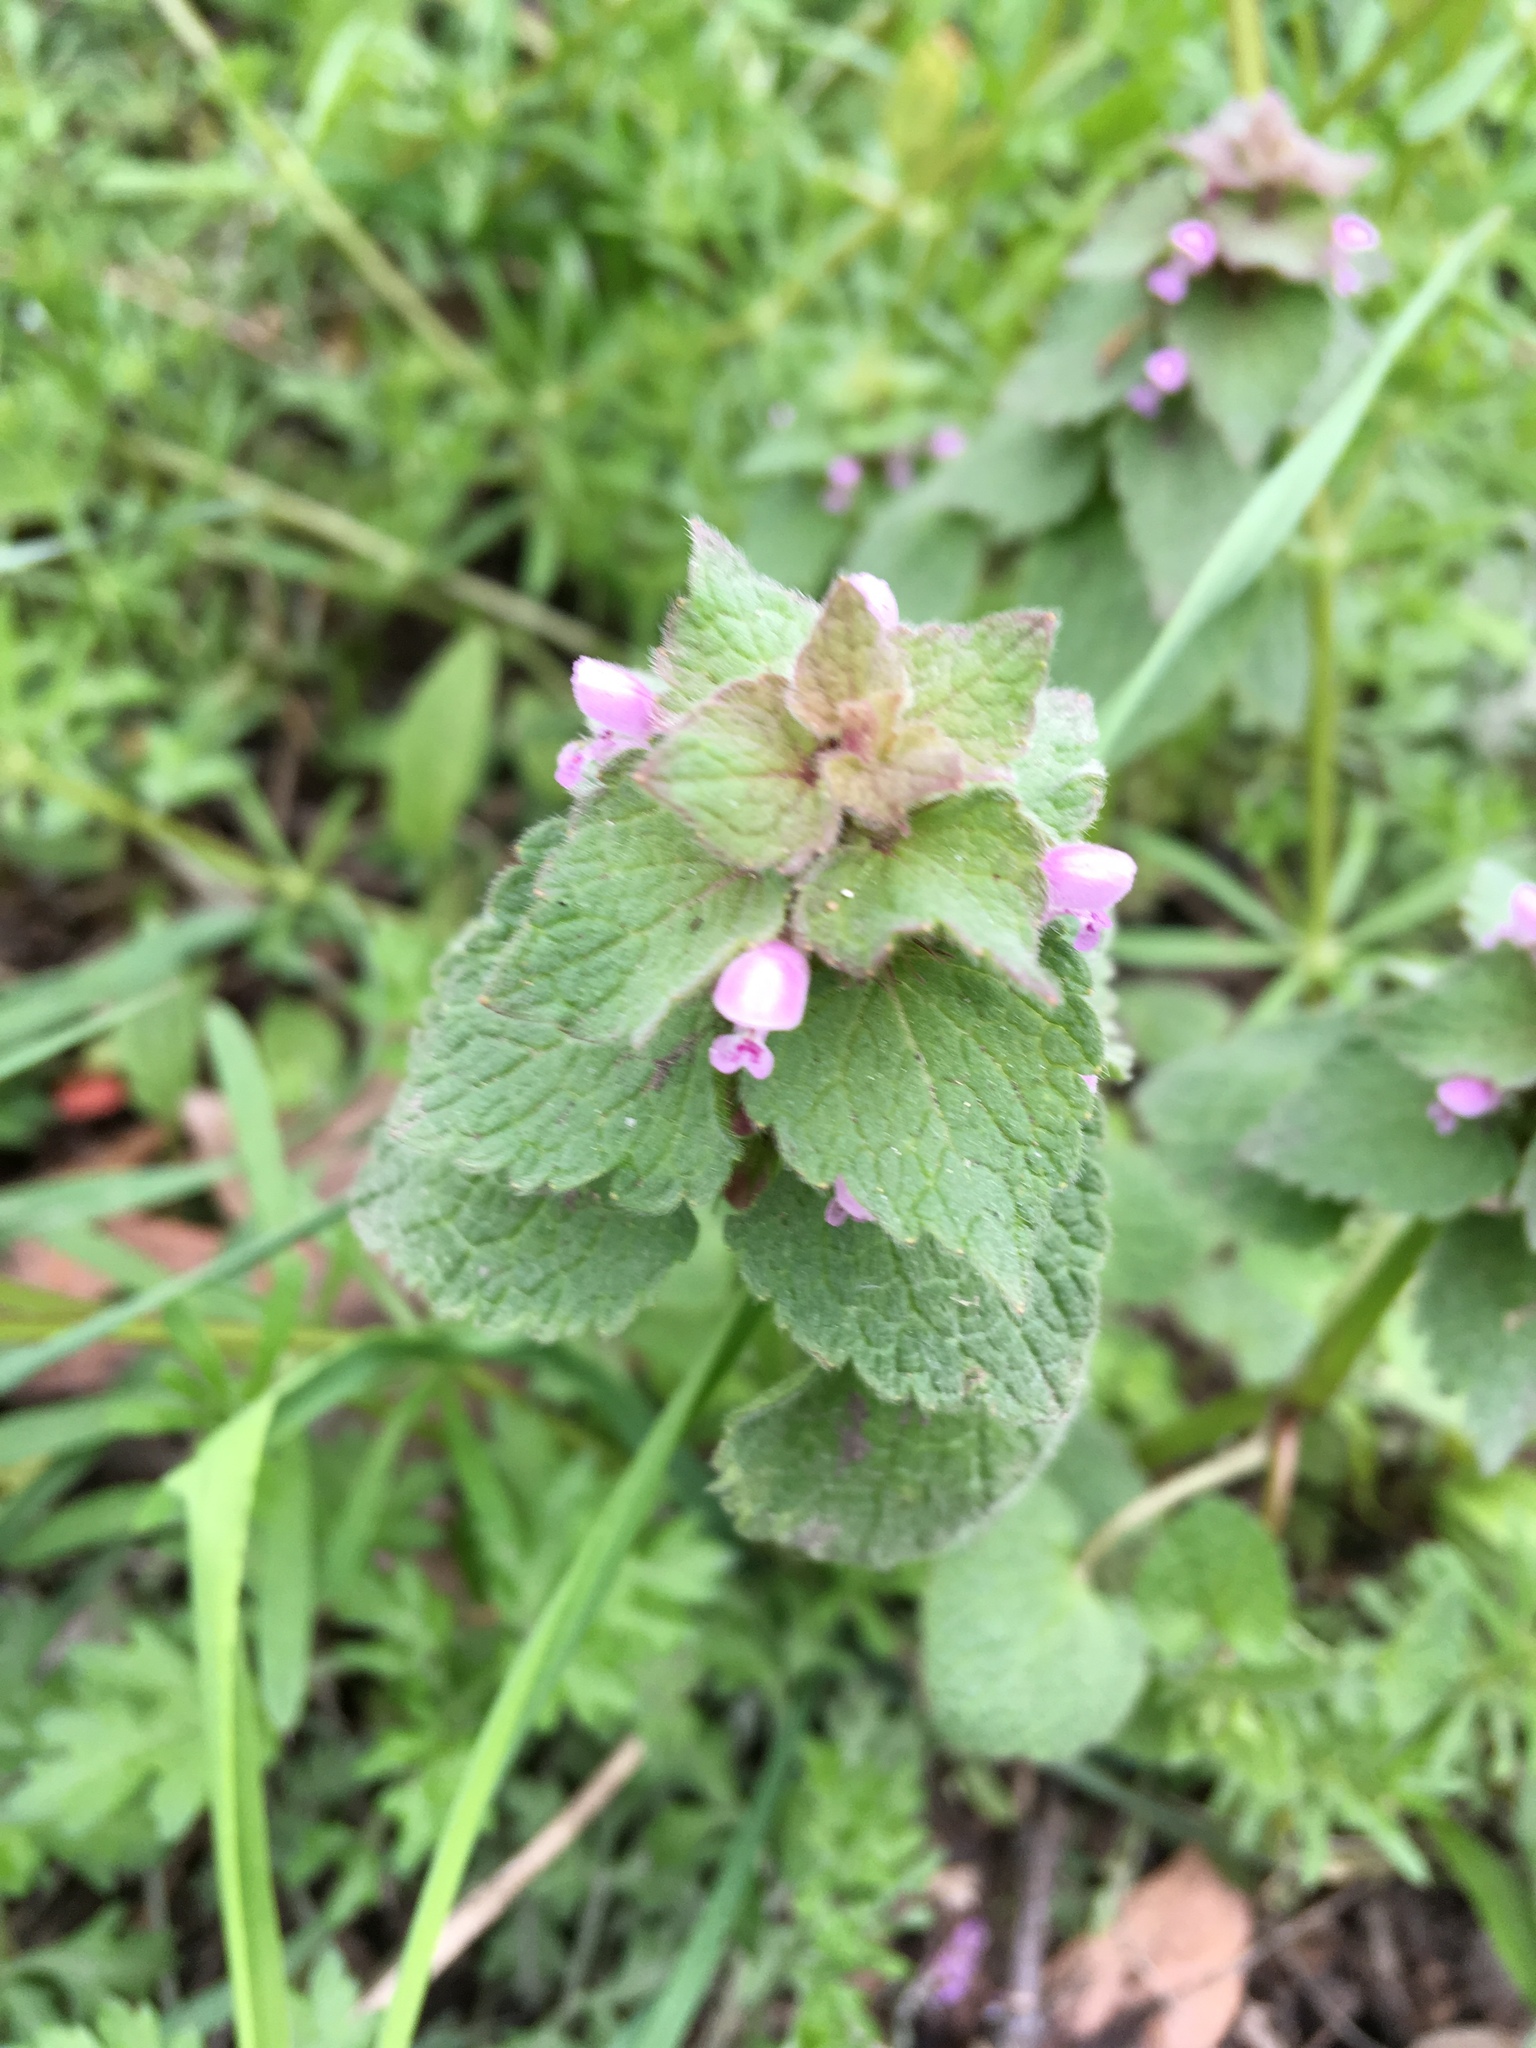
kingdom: Plantae
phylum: Tracheophyta
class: Magnoliopsida
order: Lamiales
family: Lamiaceae
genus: Lamium
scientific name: Lamium purpureum
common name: Red dead-nettle
